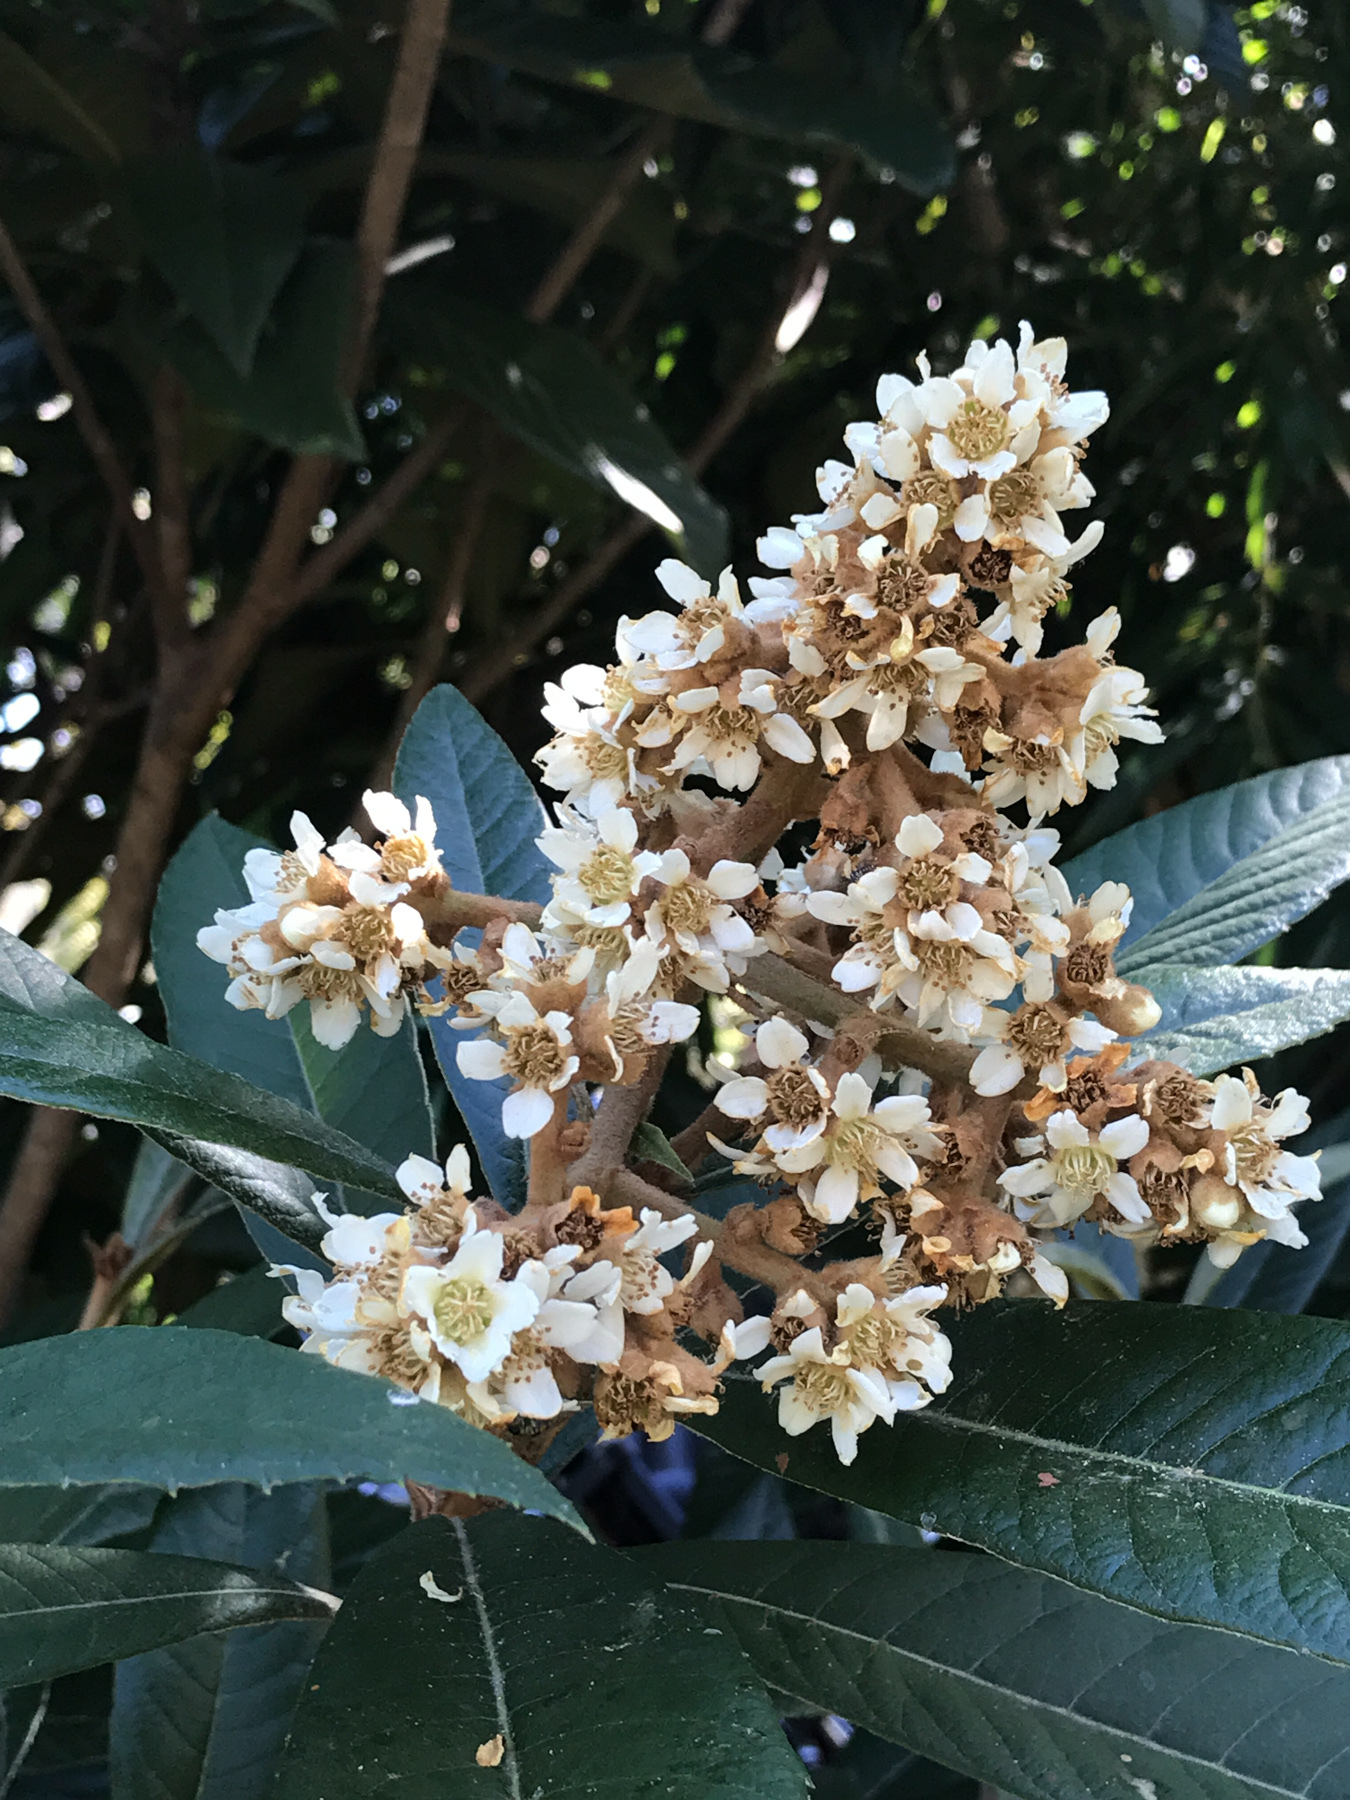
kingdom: Plantae
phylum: Tracheophyta
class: Magnoliopsida
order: Rosales
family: Rosaceae
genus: Rhaphiolepis
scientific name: Rhaphiolepis bibas
